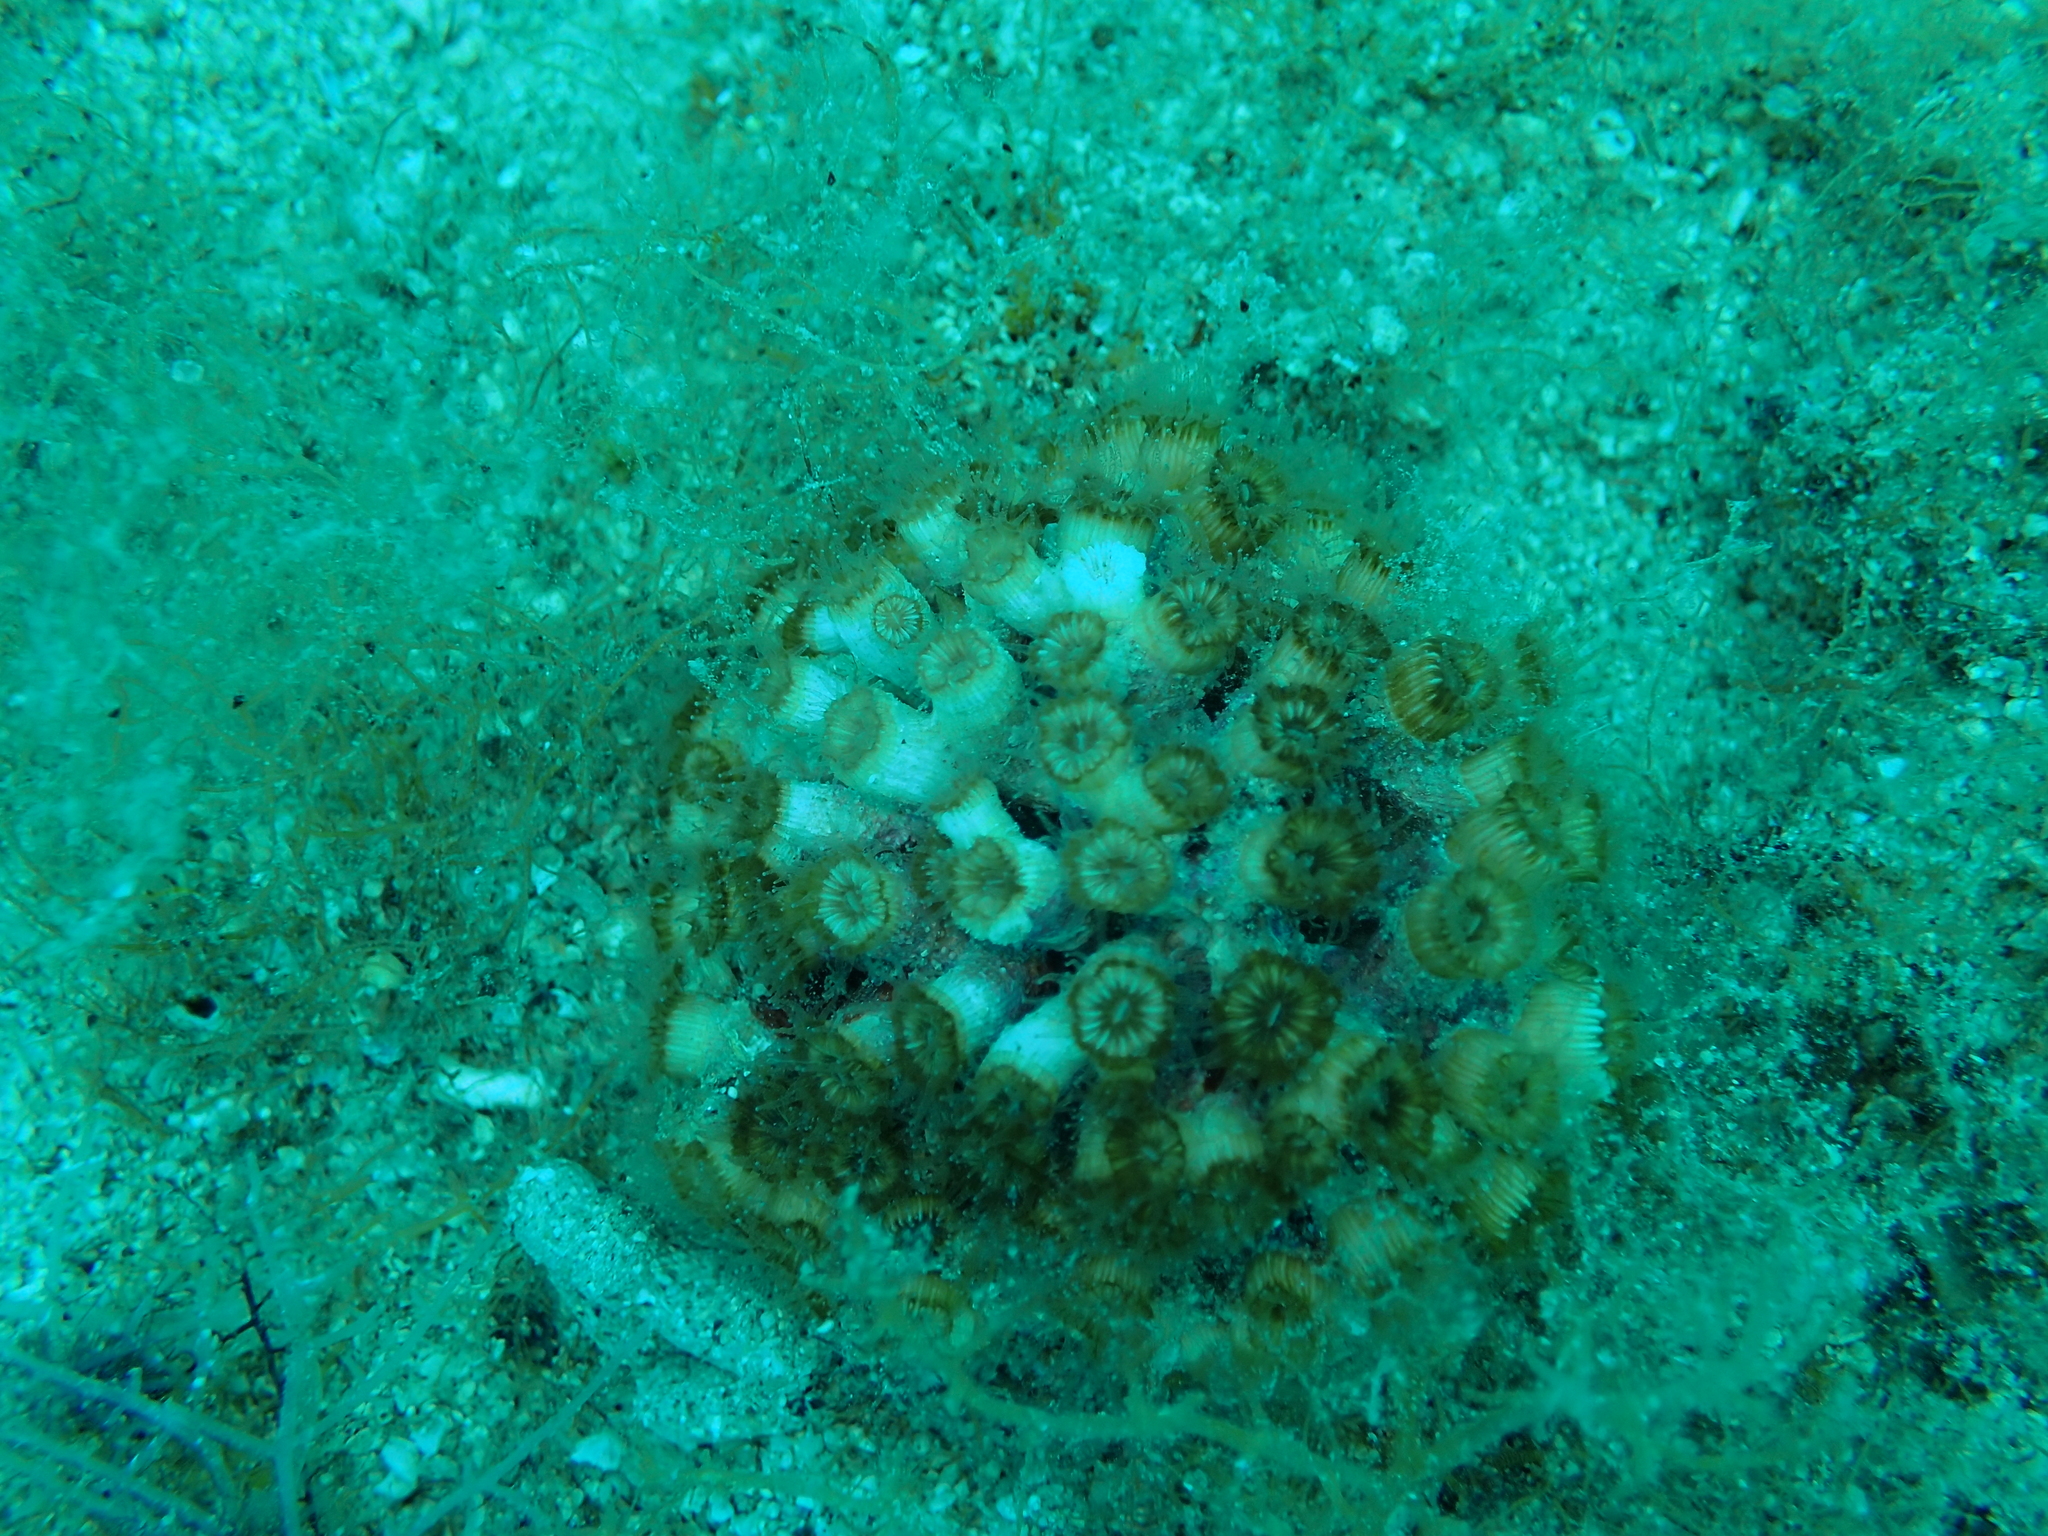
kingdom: Animalia
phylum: Cnidaria
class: Anthozoa
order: Scleractinia
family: Cladocoridae
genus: Cladocora
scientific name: Cladocora caespitosa
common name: Cladocora
